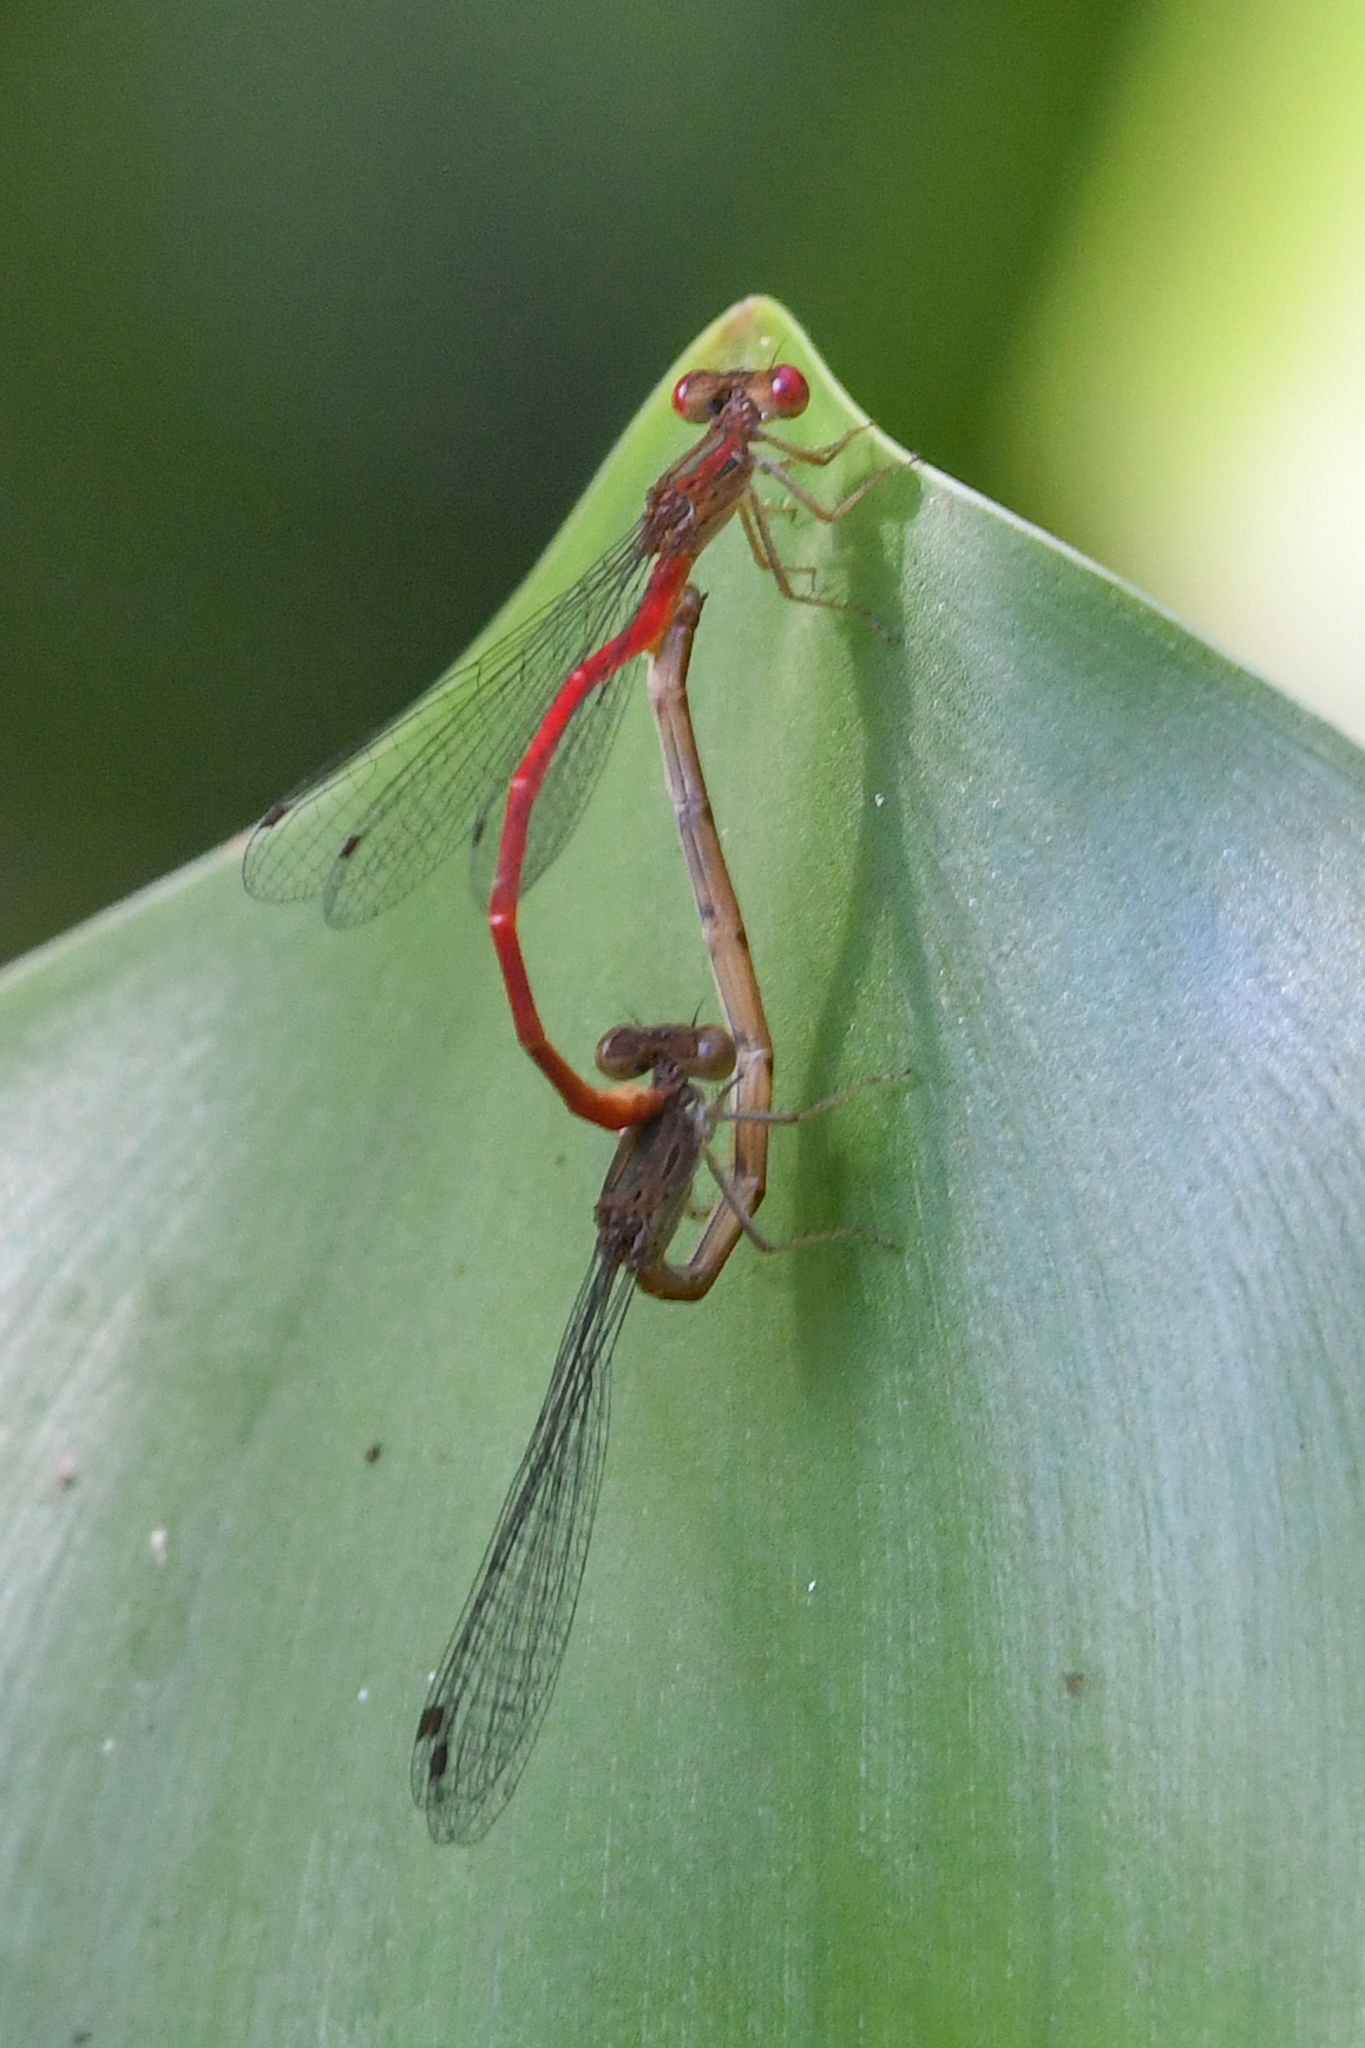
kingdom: Animalia
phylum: Arthropoda
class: Insecta
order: Odonata
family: Coenagrionidae
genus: Telebasis
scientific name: Telebasis salva
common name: Desert firetail
